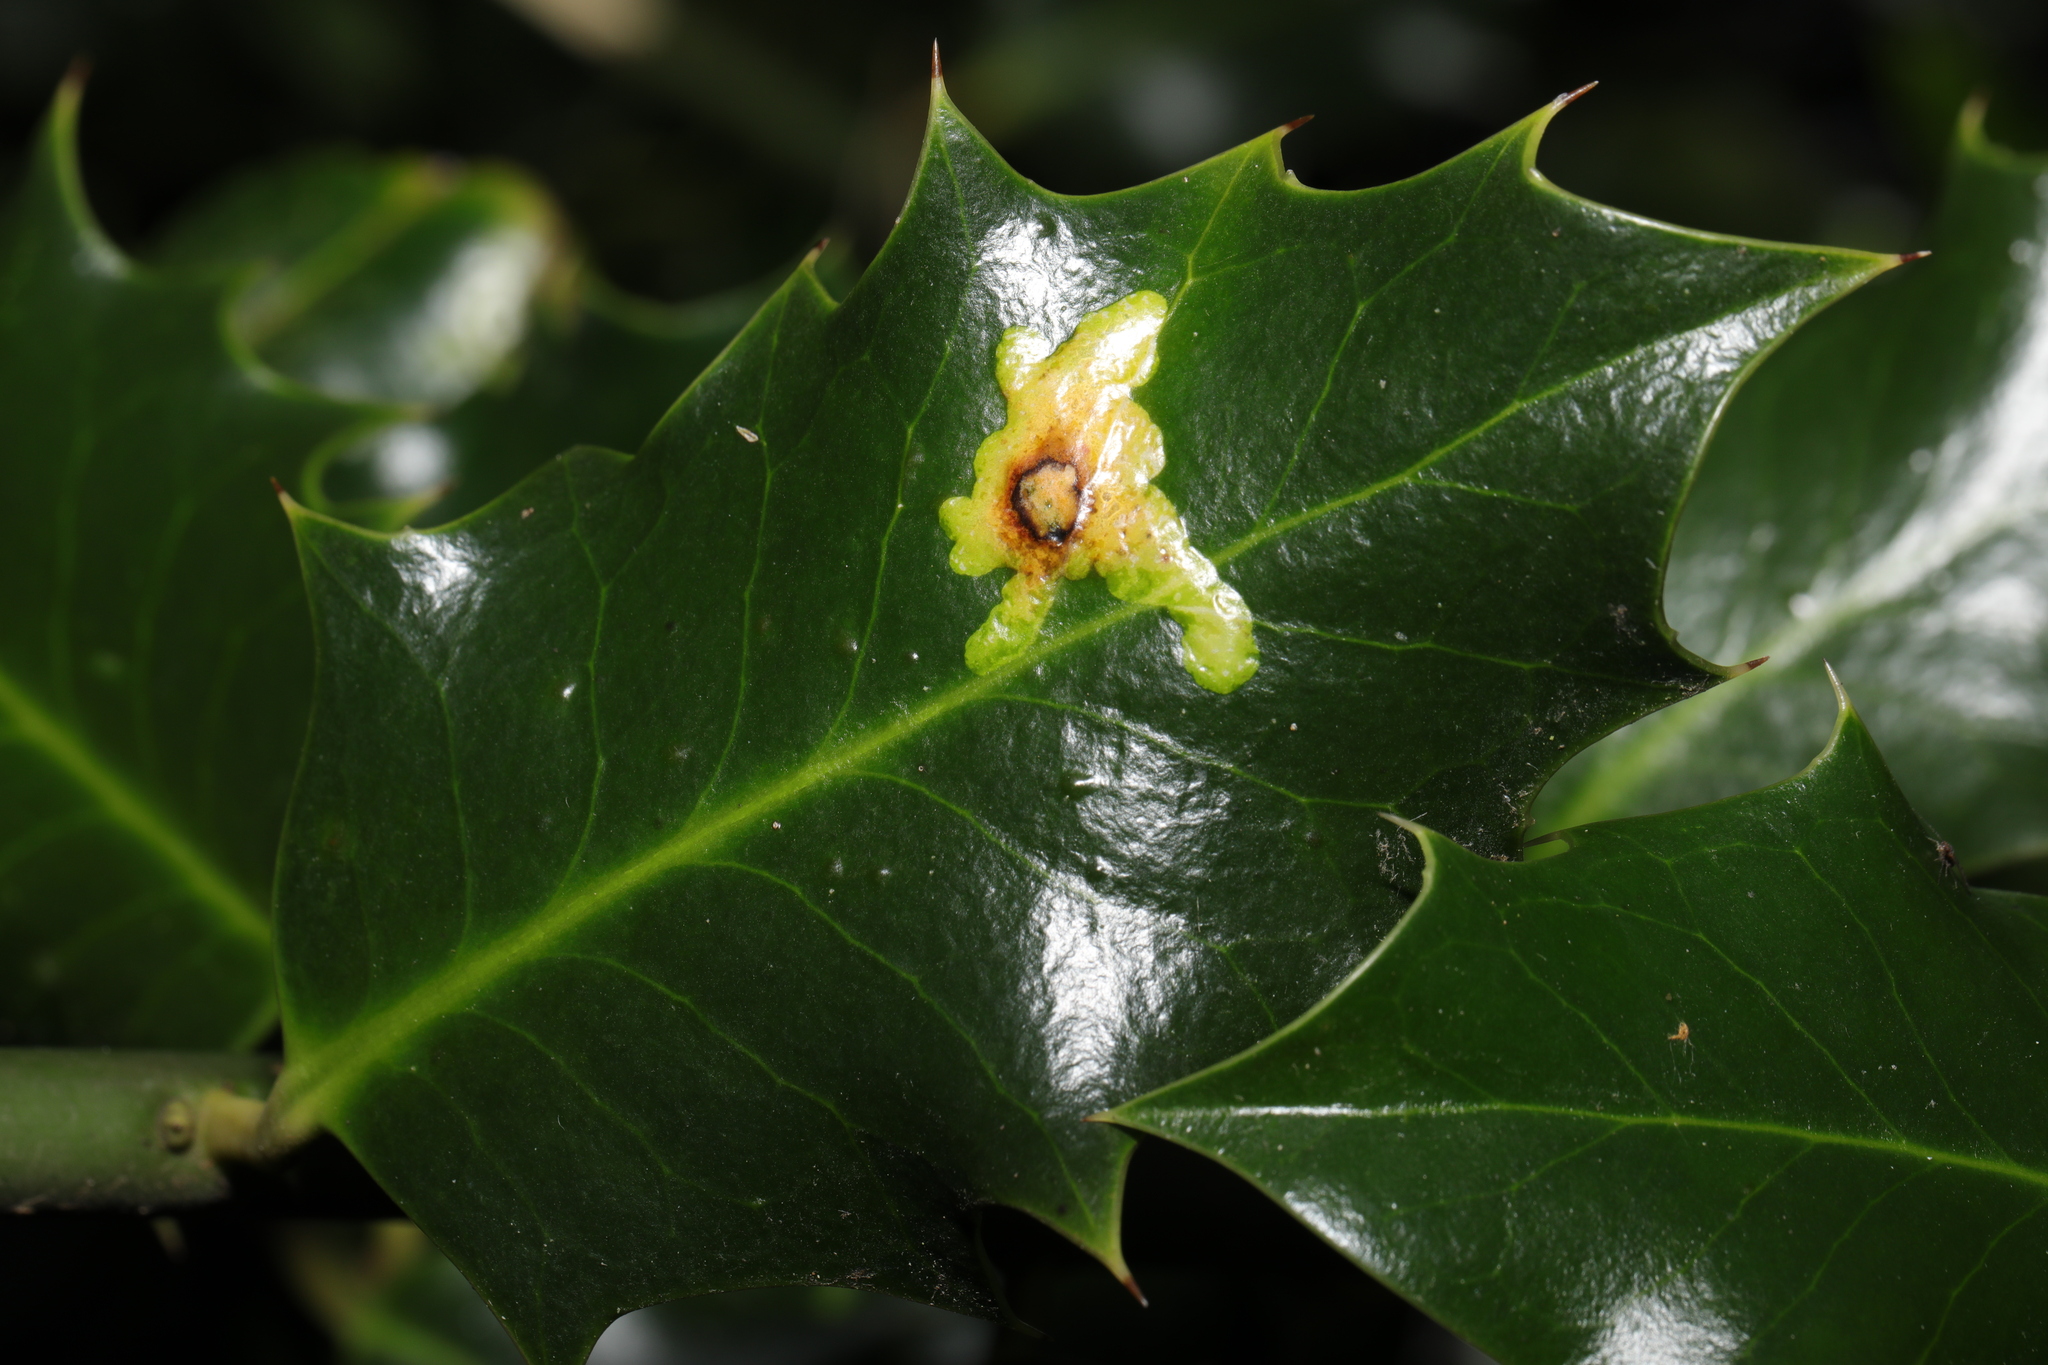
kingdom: Animalia
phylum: Arthropoda
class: Insecta
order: Diptera
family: Agromyzidae
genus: Phytomyza
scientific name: Phytomyza ilicis
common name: Holly leafminer
